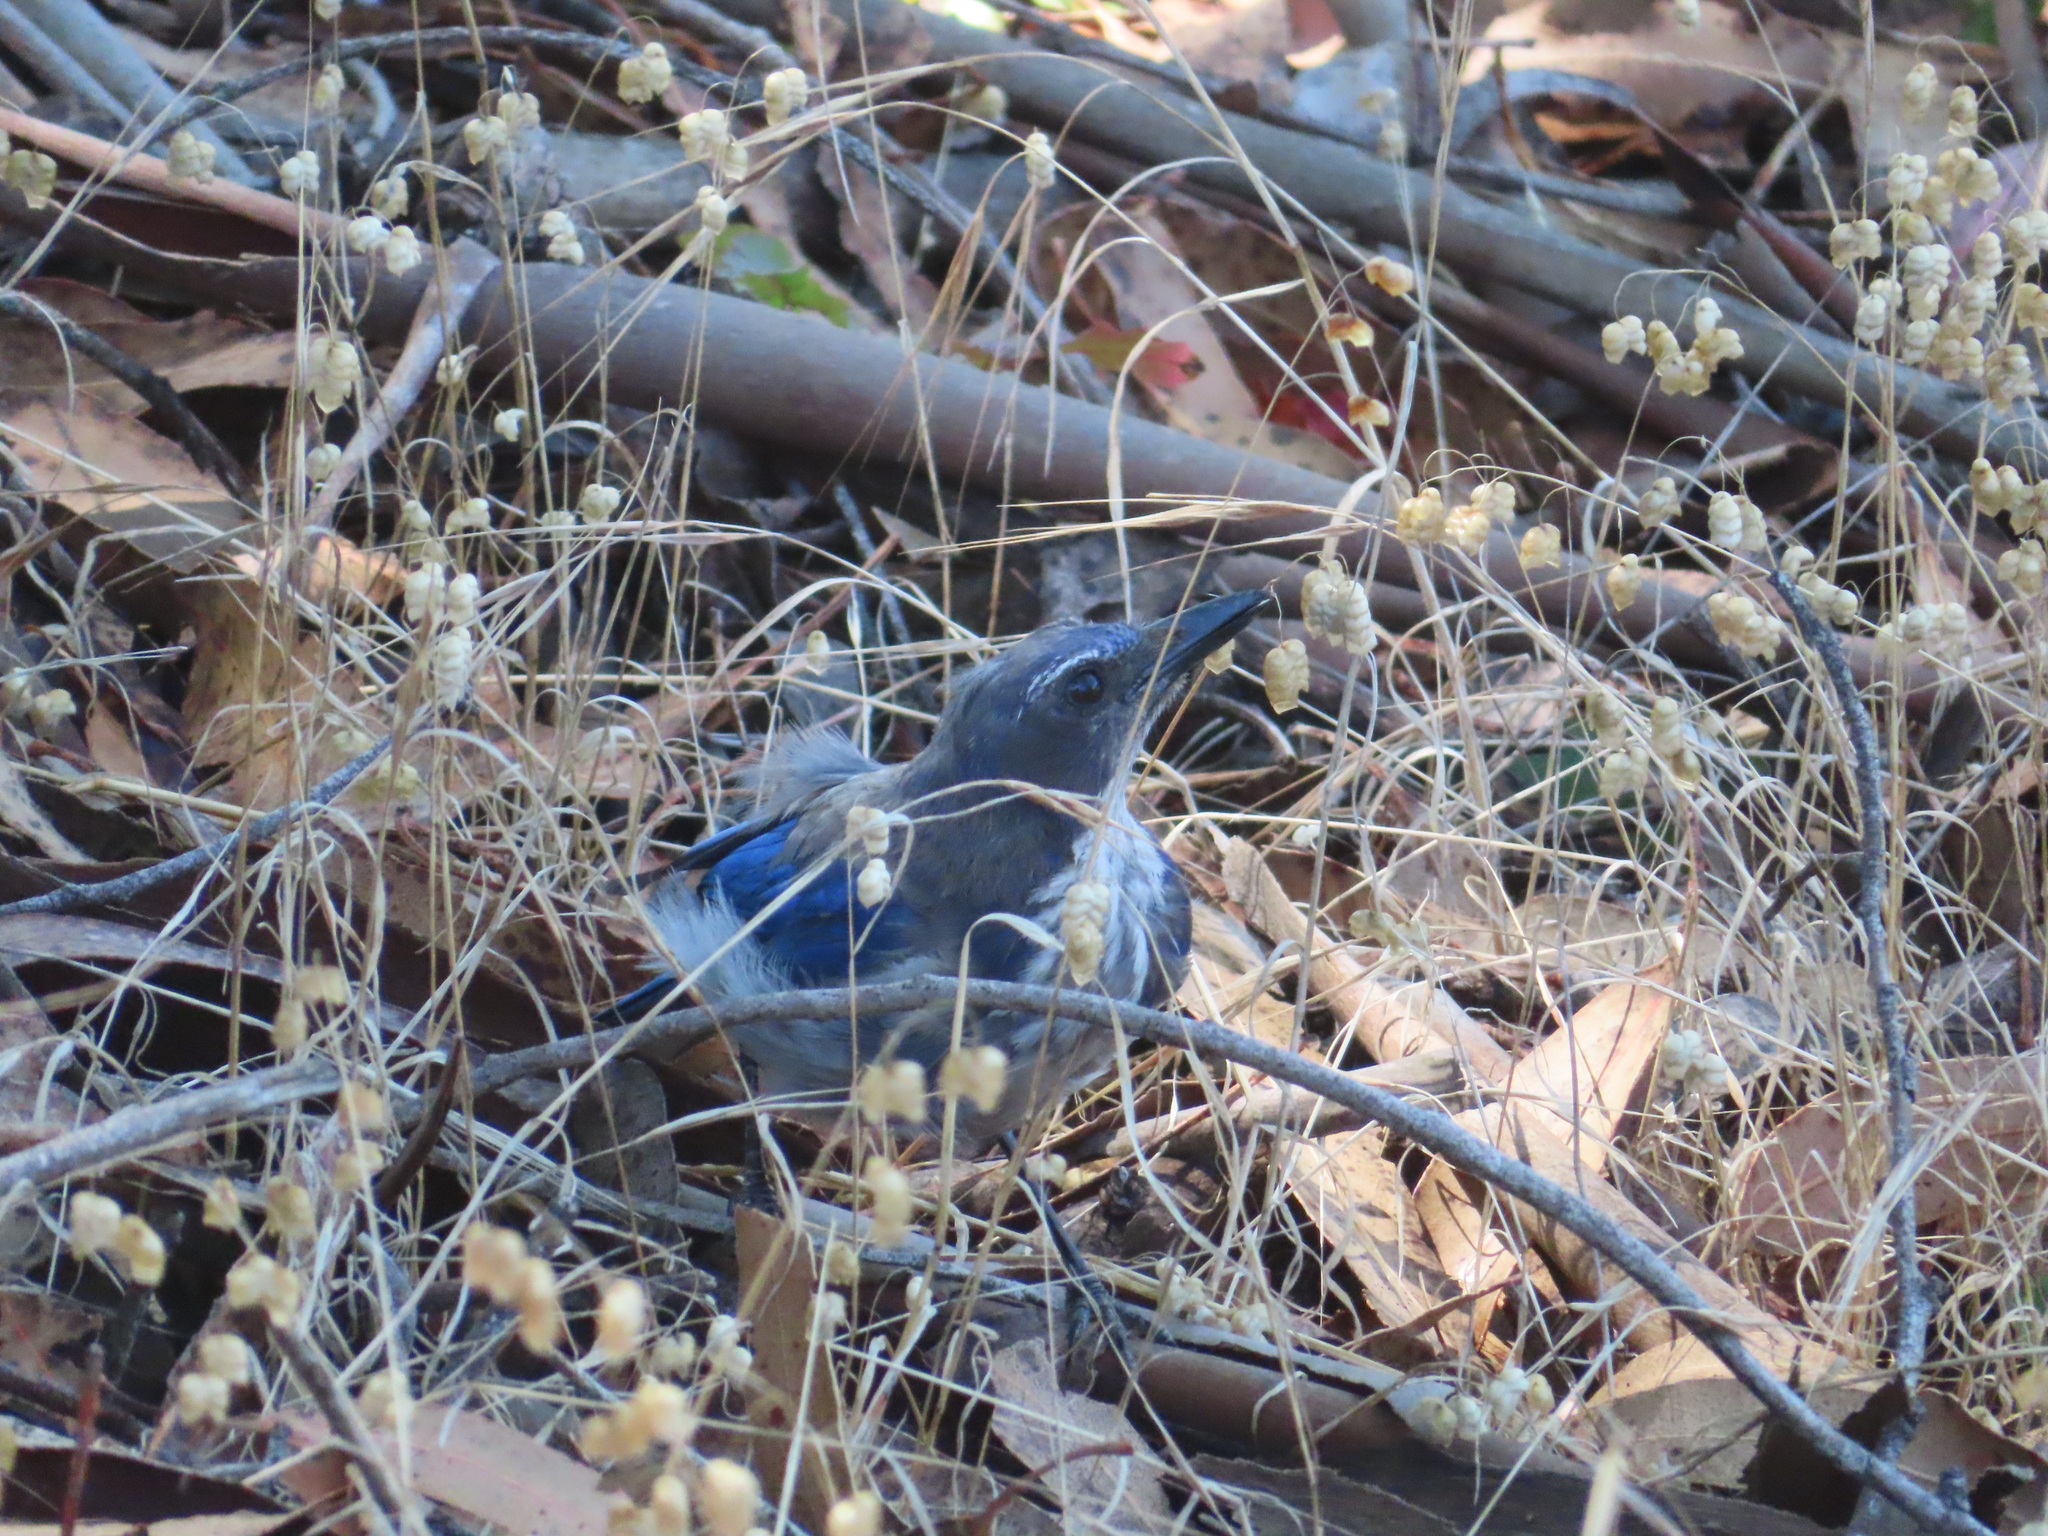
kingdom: Animalia
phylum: Chordata
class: Aves
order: Passeriformes
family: Corvidae
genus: Aphelocoma
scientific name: Aphelocoma californica
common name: California scrub-jay
